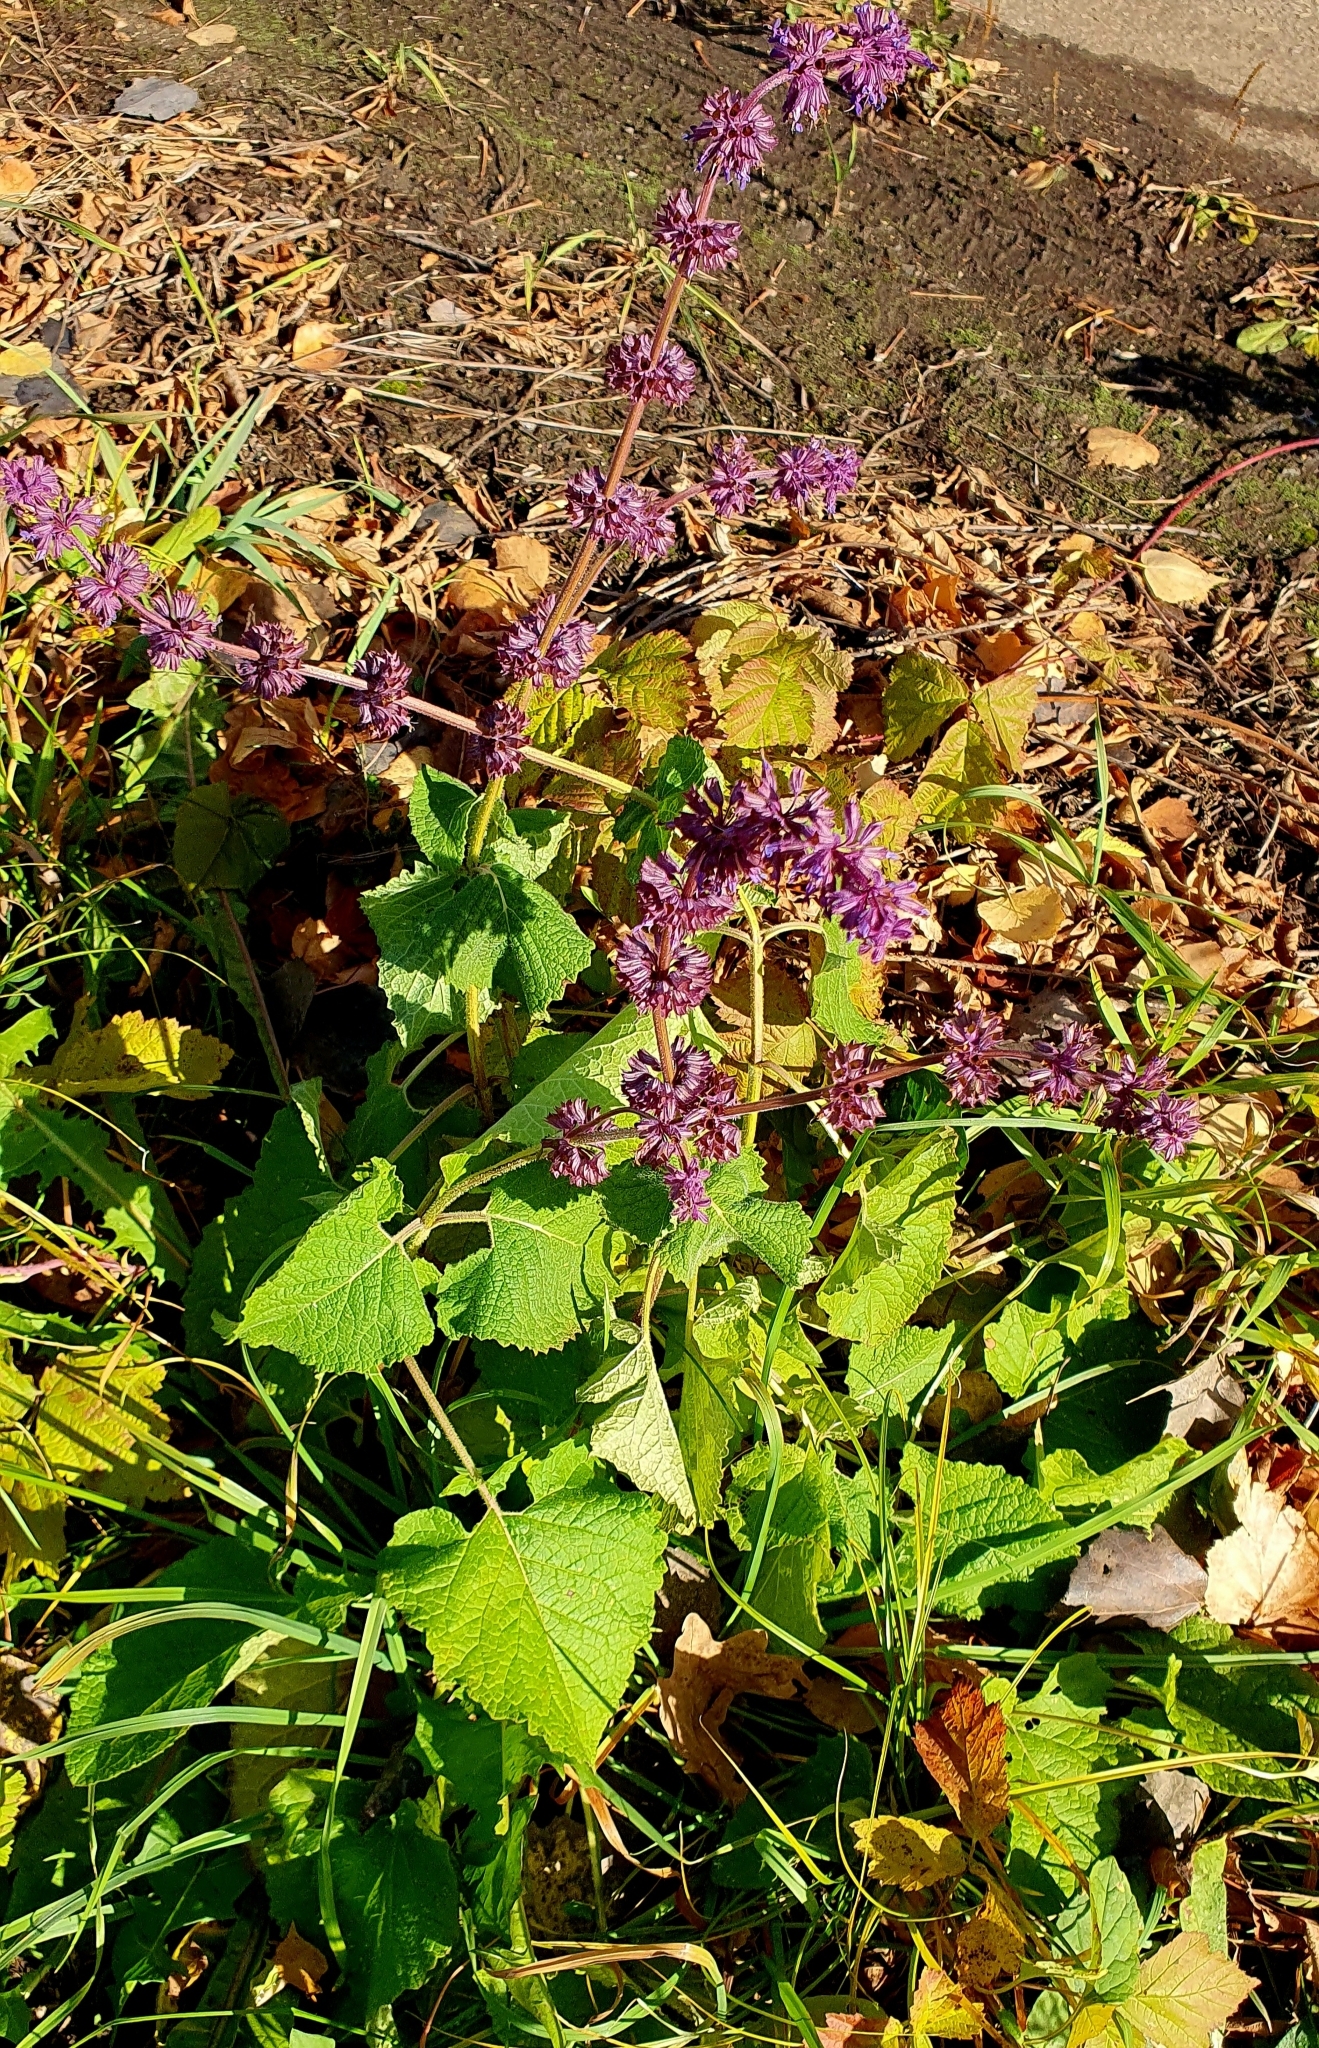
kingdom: Plantae
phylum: Tracheophyta
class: Magnoliopsida
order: Lamiales
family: Lamiaceae
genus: Salvia
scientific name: Salvia verticillata
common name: Whorled clary
